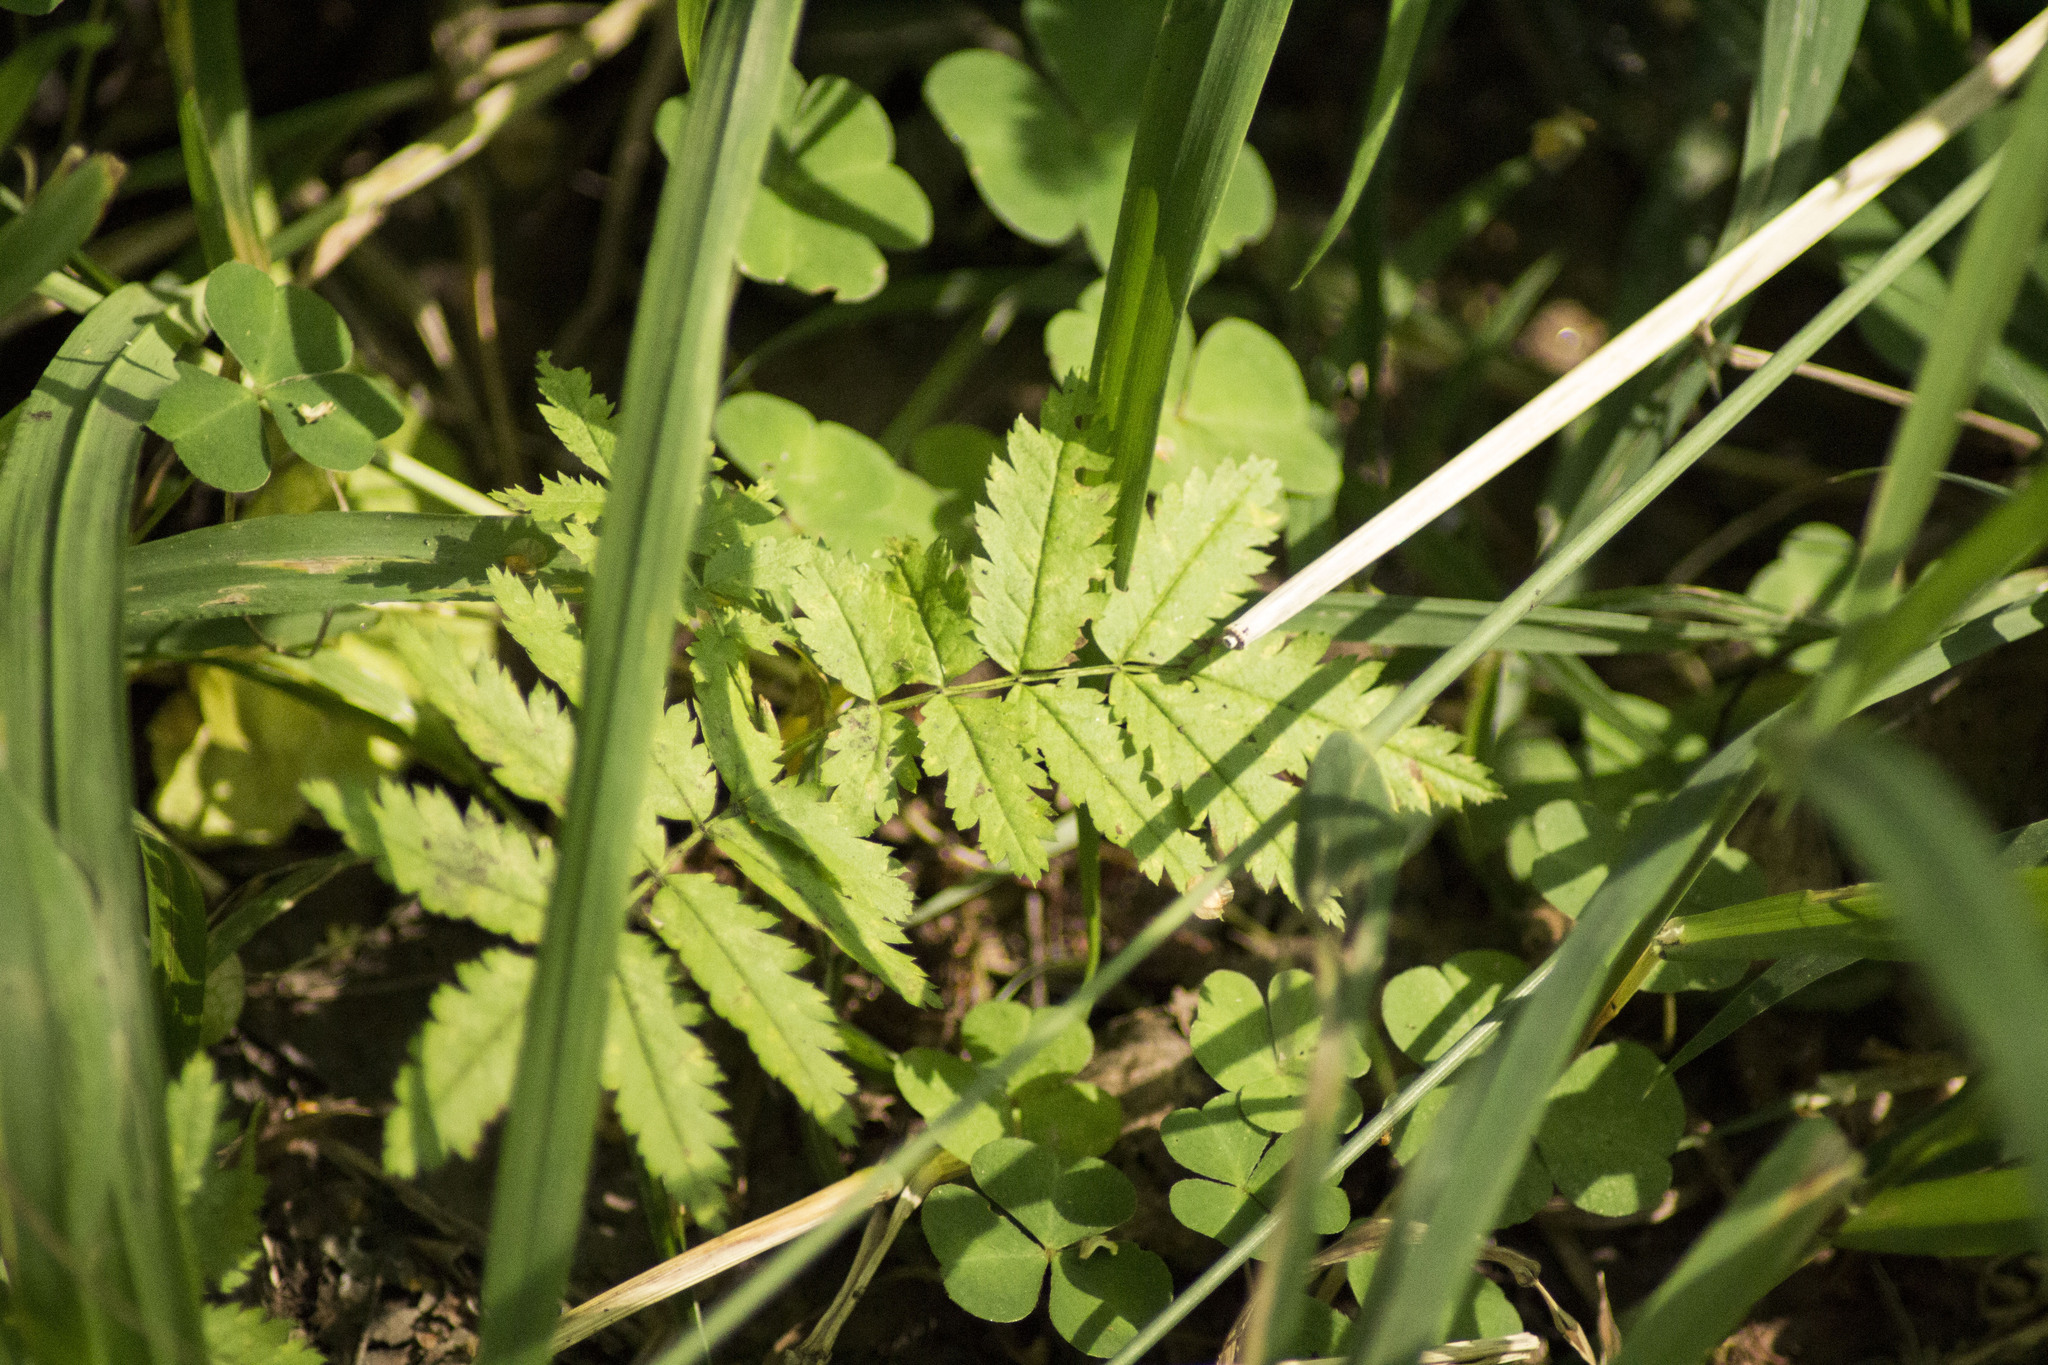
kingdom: Plantae
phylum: Tracheophyta
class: Magnoliopsida
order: Rosales
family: Rosaceae
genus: Sorbus
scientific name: Sorbus aucuparia
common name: Rowan
